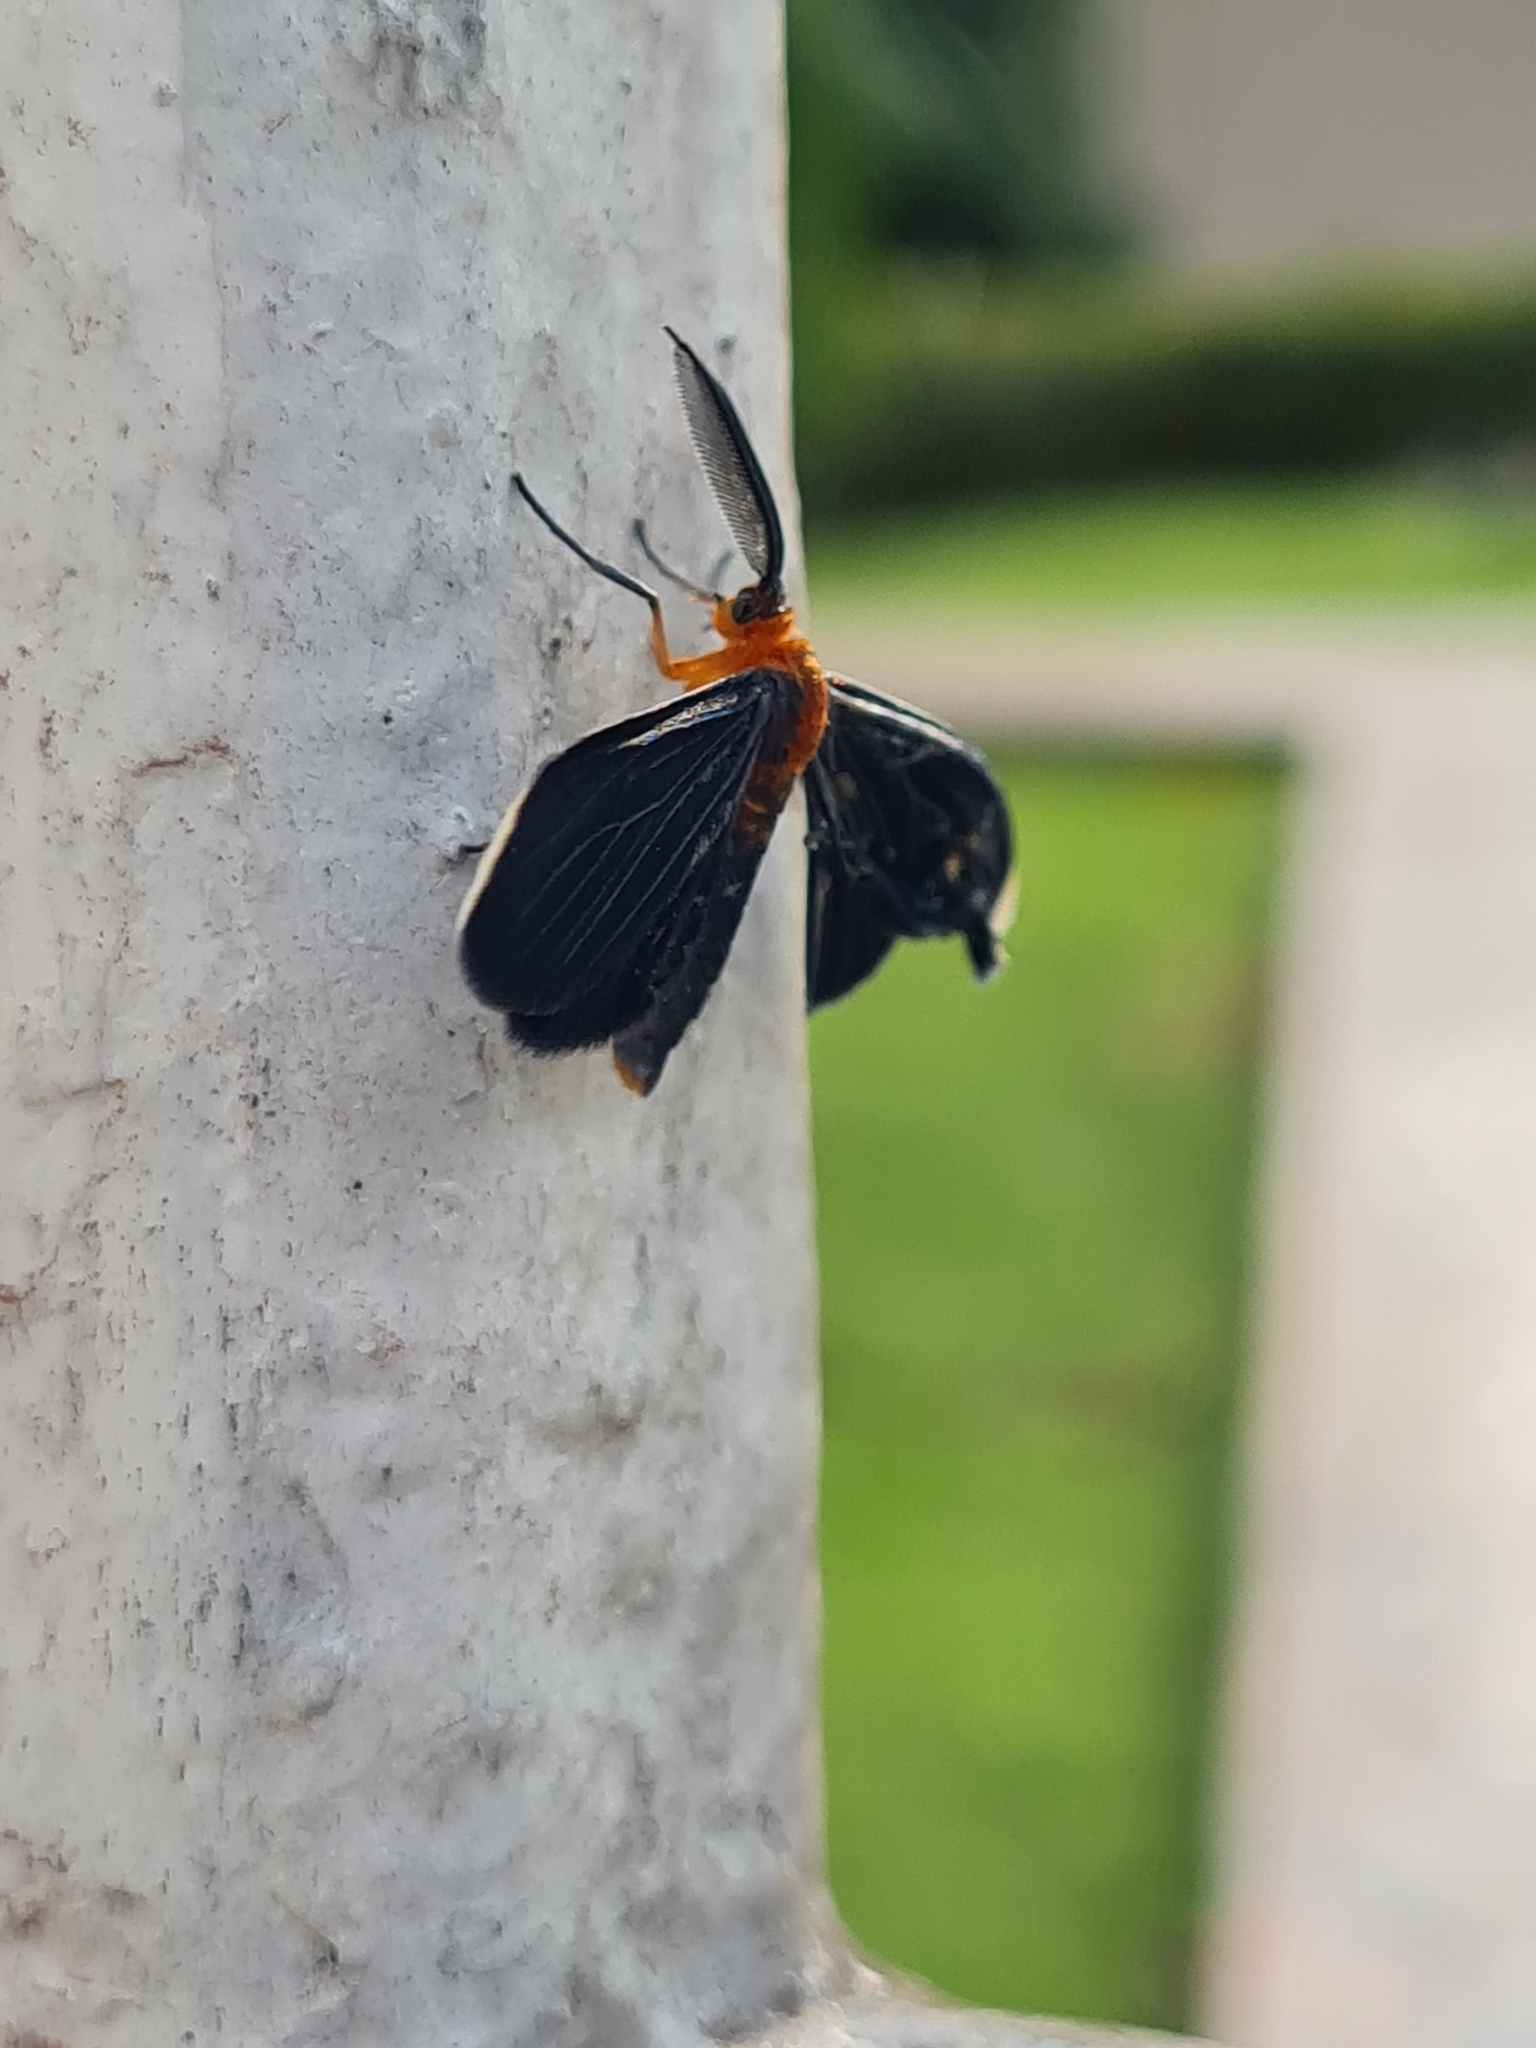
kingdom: Animalia
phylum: Arthropoda
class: Insecta
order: Lepidoptera
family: Geometridae
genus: Melanchroia
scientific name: Melanchroia chephise
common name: White-tipped black
